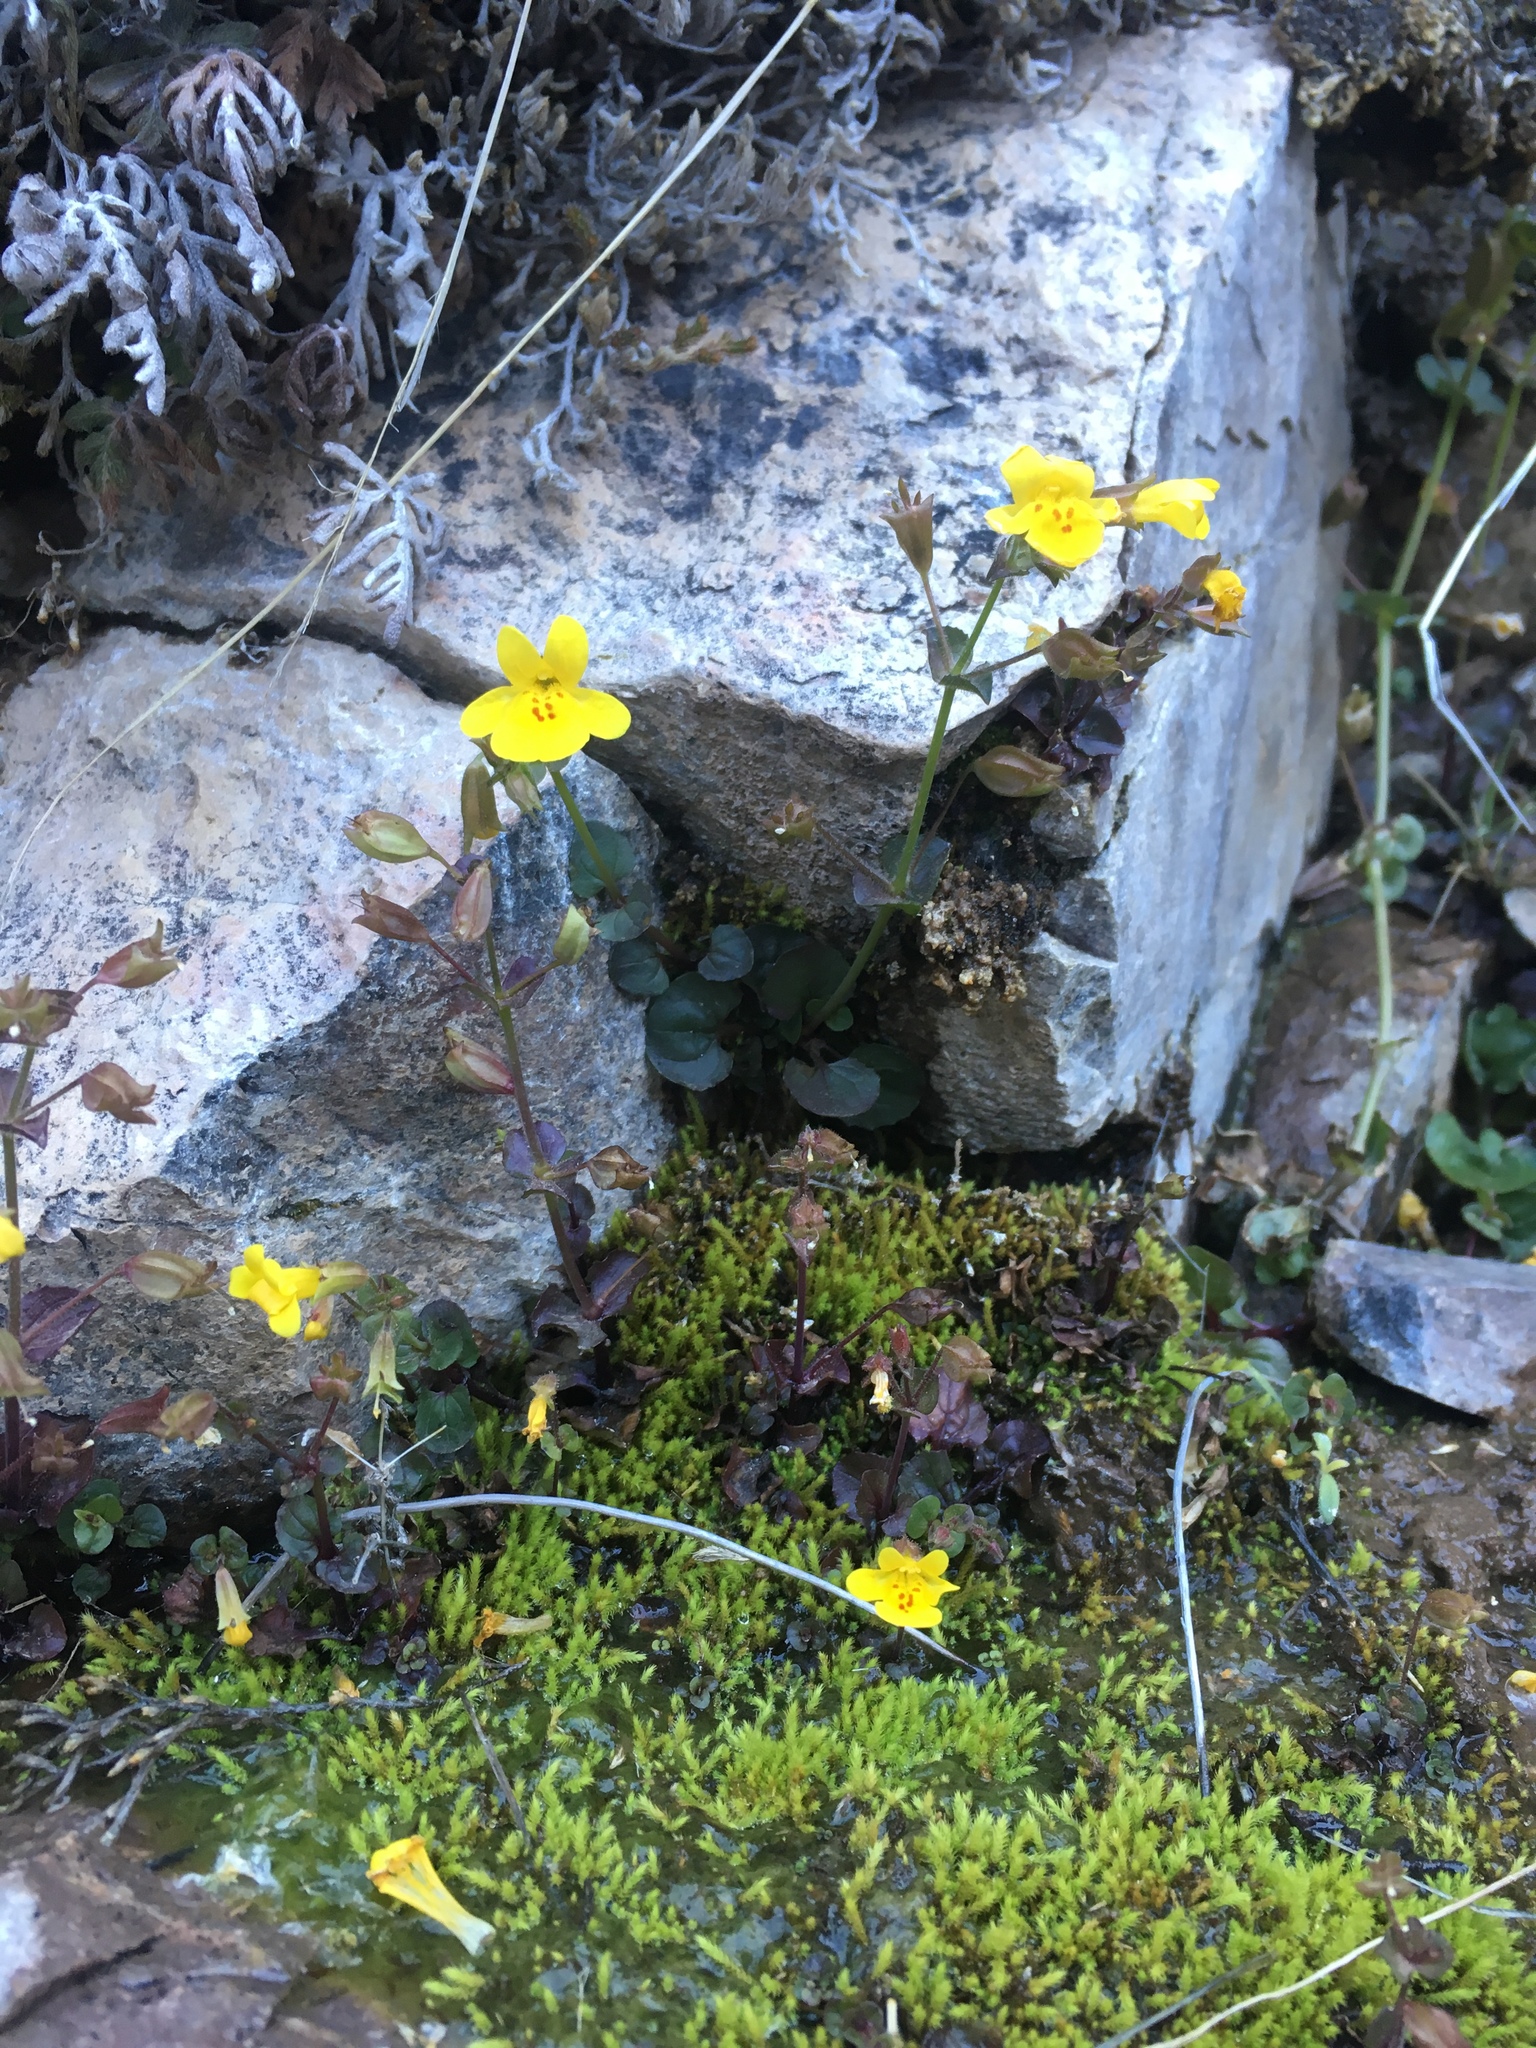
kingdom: Plantae
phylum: Tracheophyta
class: Magnoliopsida
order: Lamiales
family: Phrymaceae
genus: Erythranthe
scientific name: Erythranthe cordata
